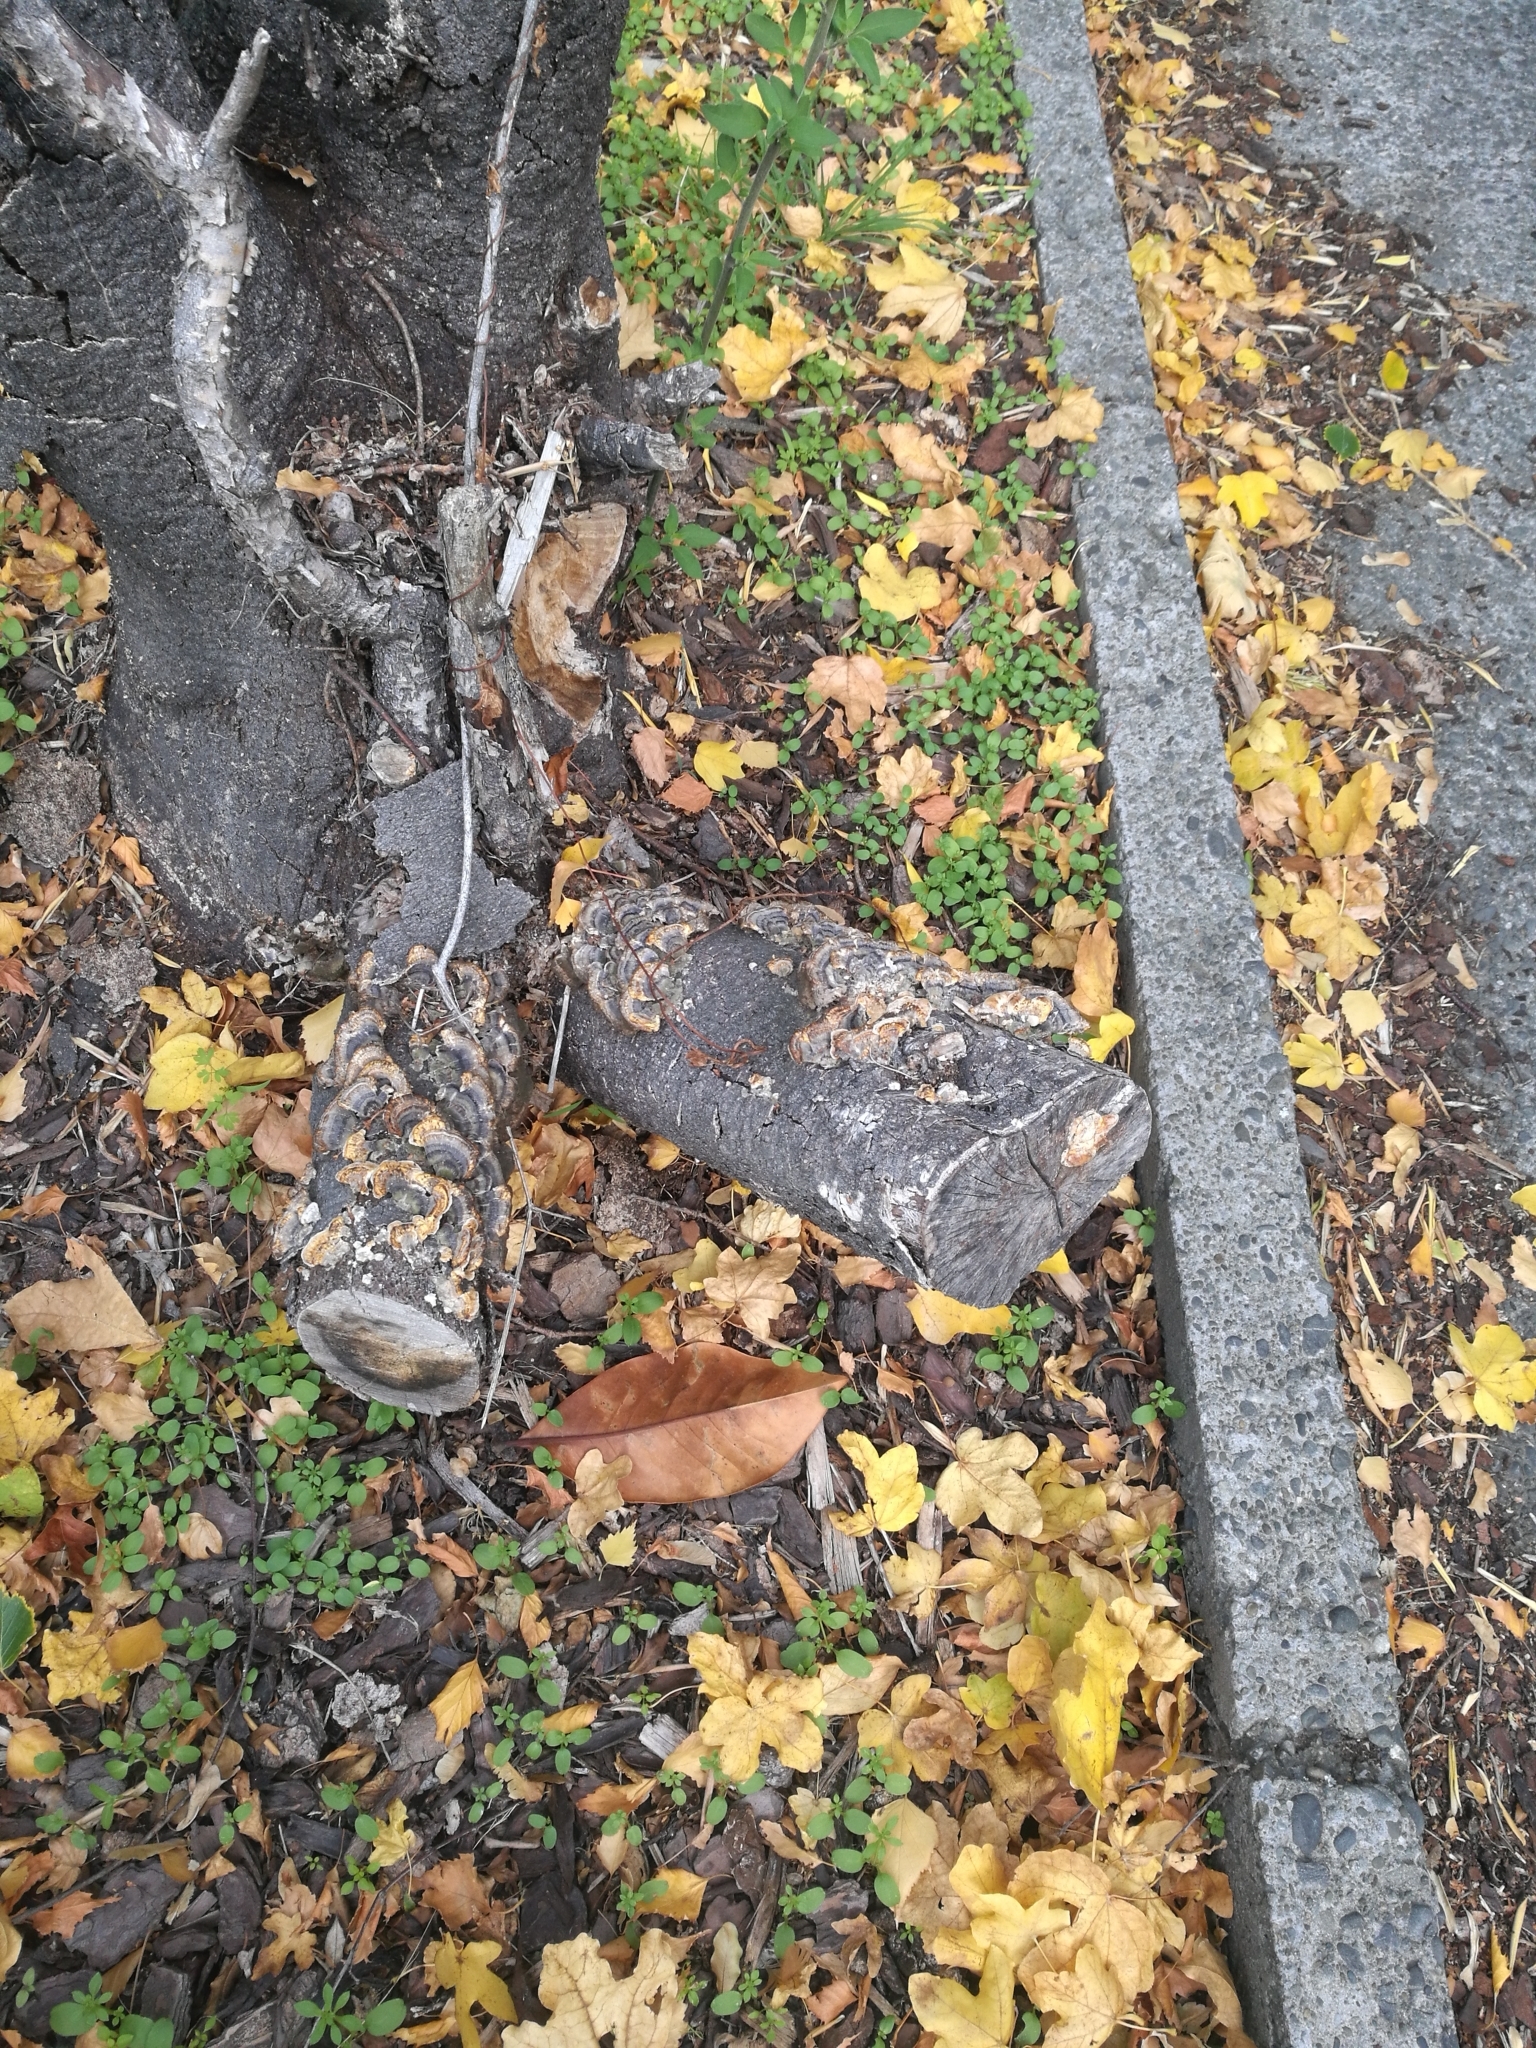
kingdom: Fungi
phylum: Basidiomycota
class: Agaricomycetes
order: Polyporales
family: Polyporaceae
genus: Trametes
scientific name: Trametes versicolor
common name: Turkeytail
